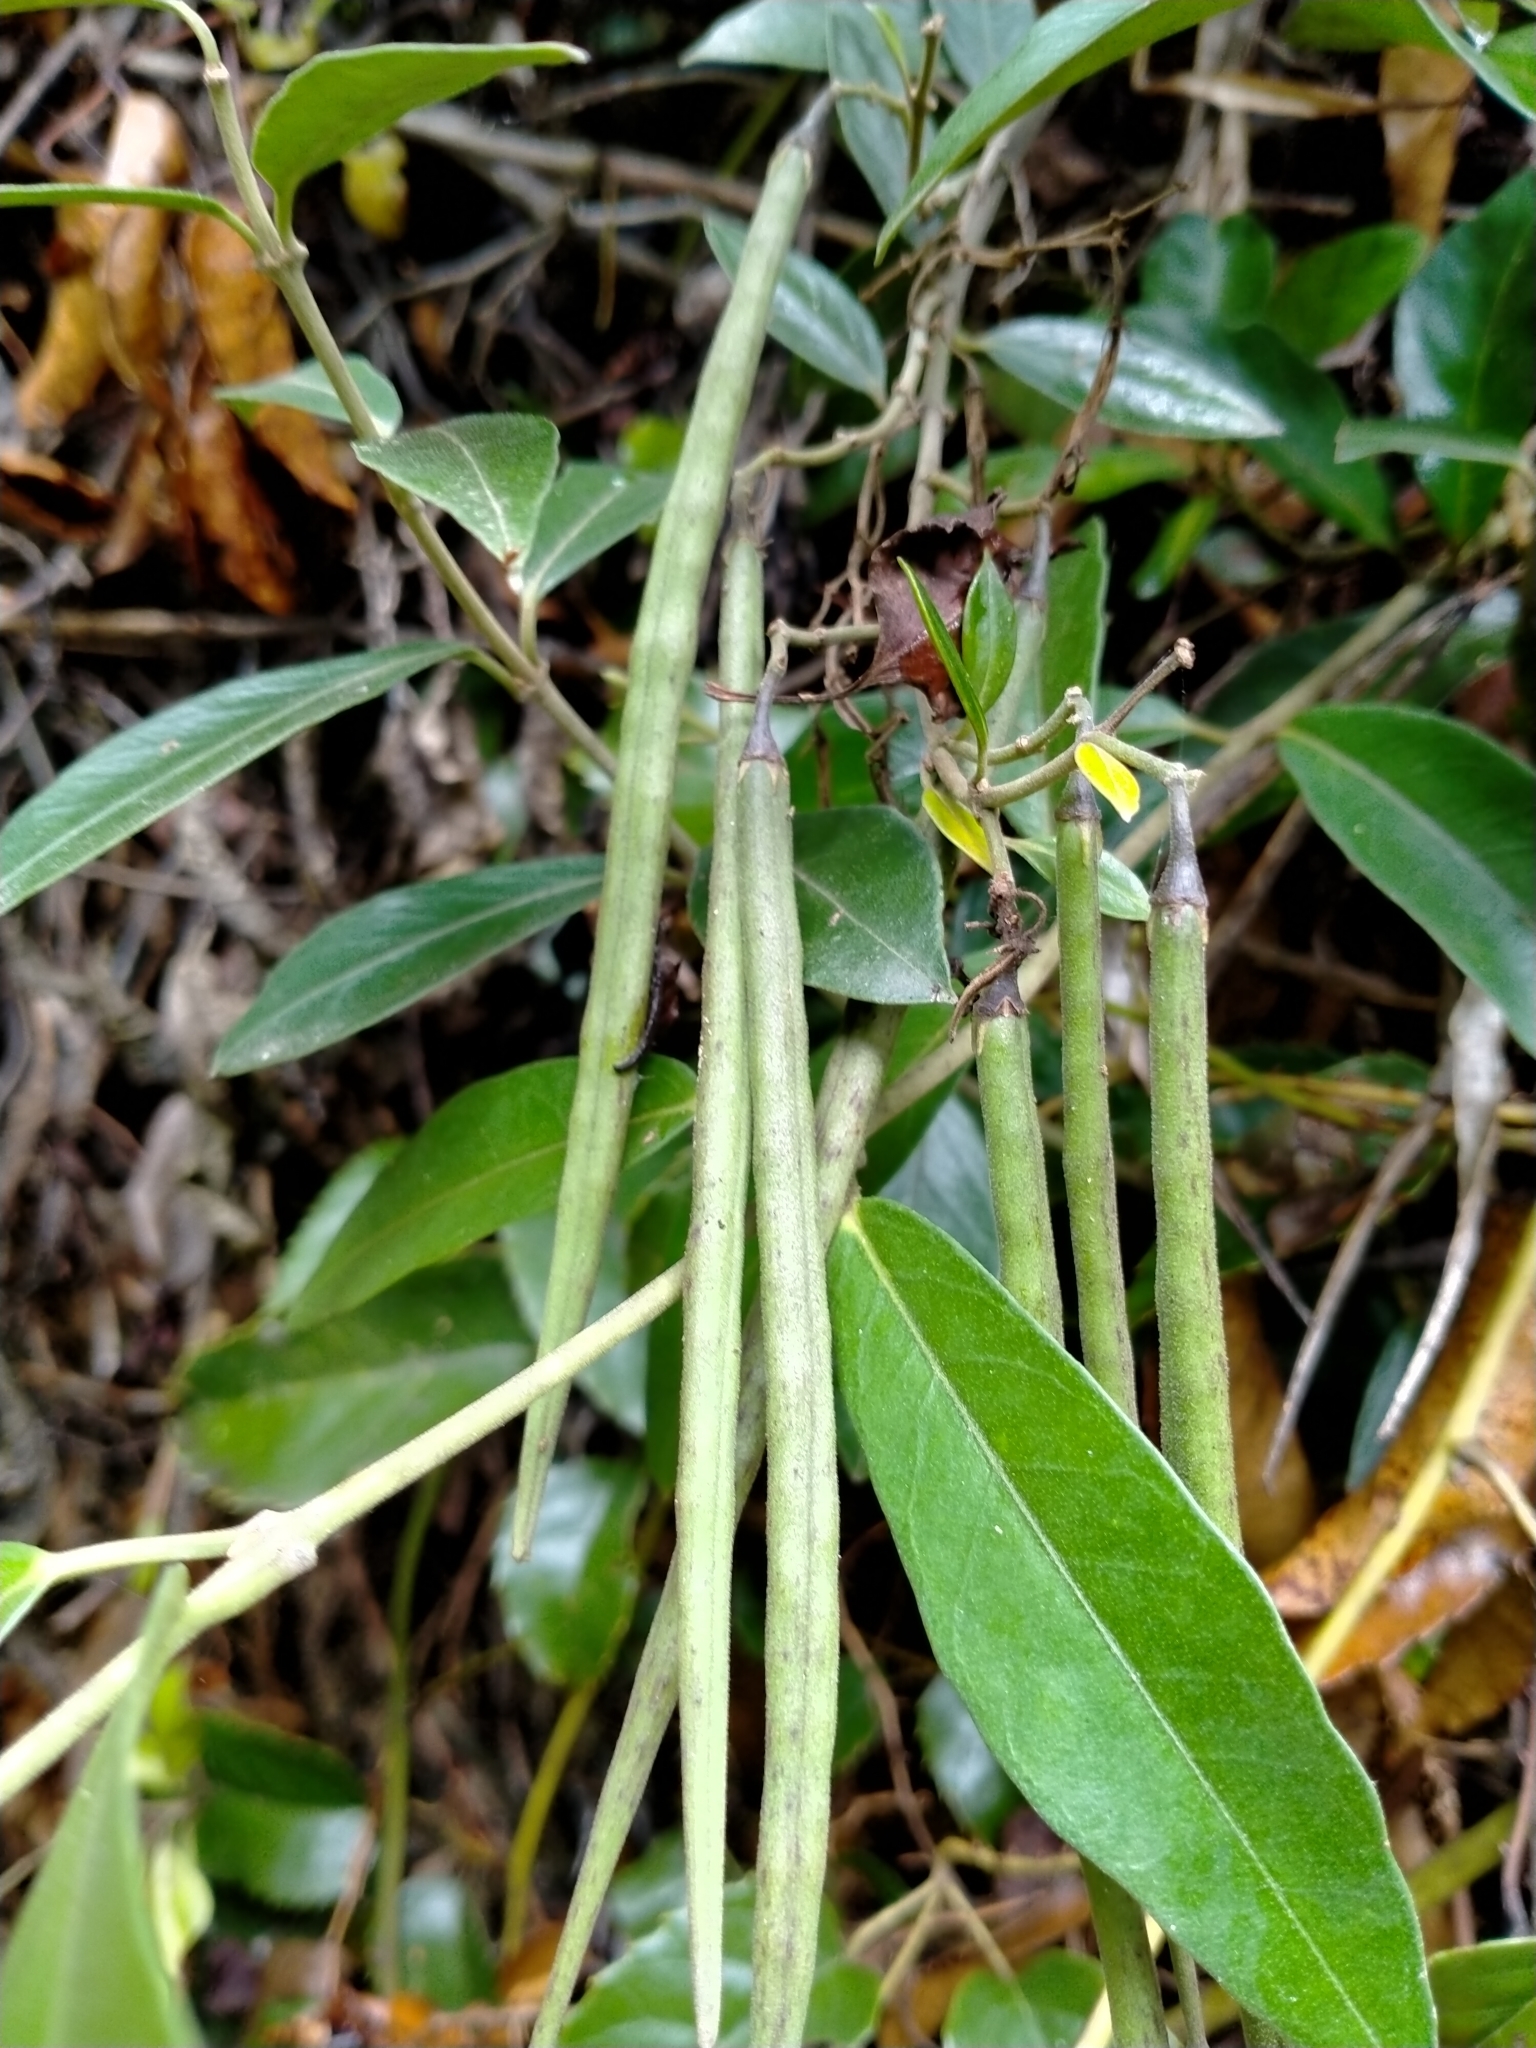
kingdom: Plantae
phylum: Tracheophyta
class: Magnoliopsida
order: Gentianales
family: Apocynaceae
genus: Parsonsia
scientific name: Parsonsia heterophylla
